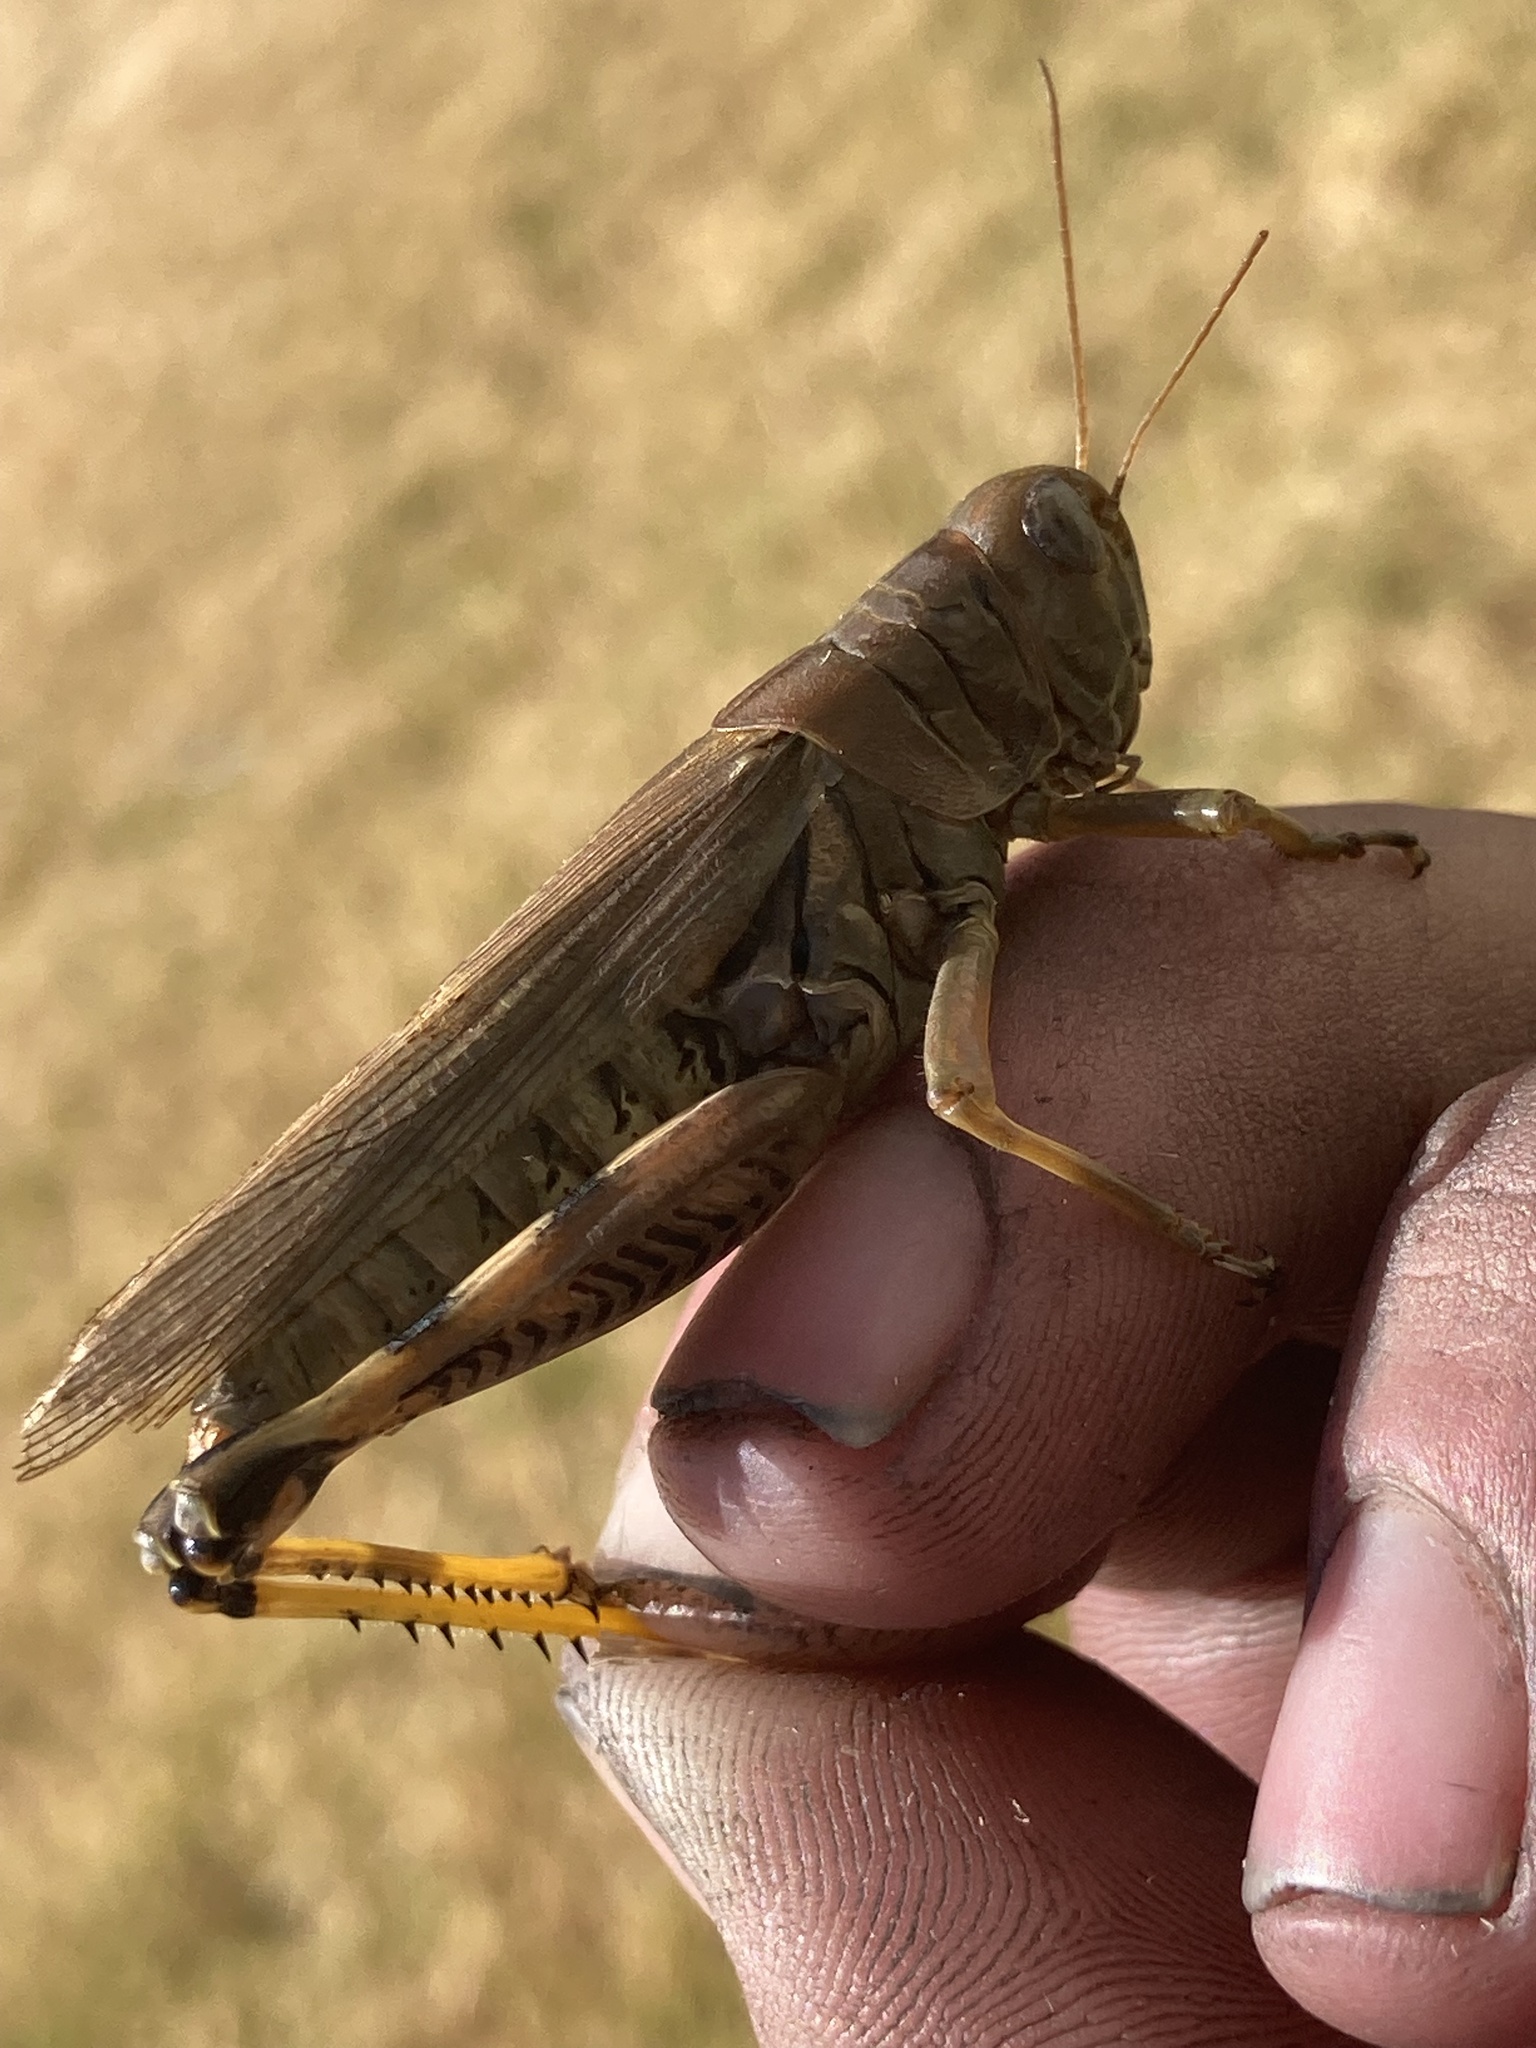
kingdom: Animalia
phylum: Arthropoda
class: Insecta
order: Orthoptera
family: Acrididae
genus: Melanoplus
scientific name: Melanoplus differentialis
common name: Differential grasshopper
